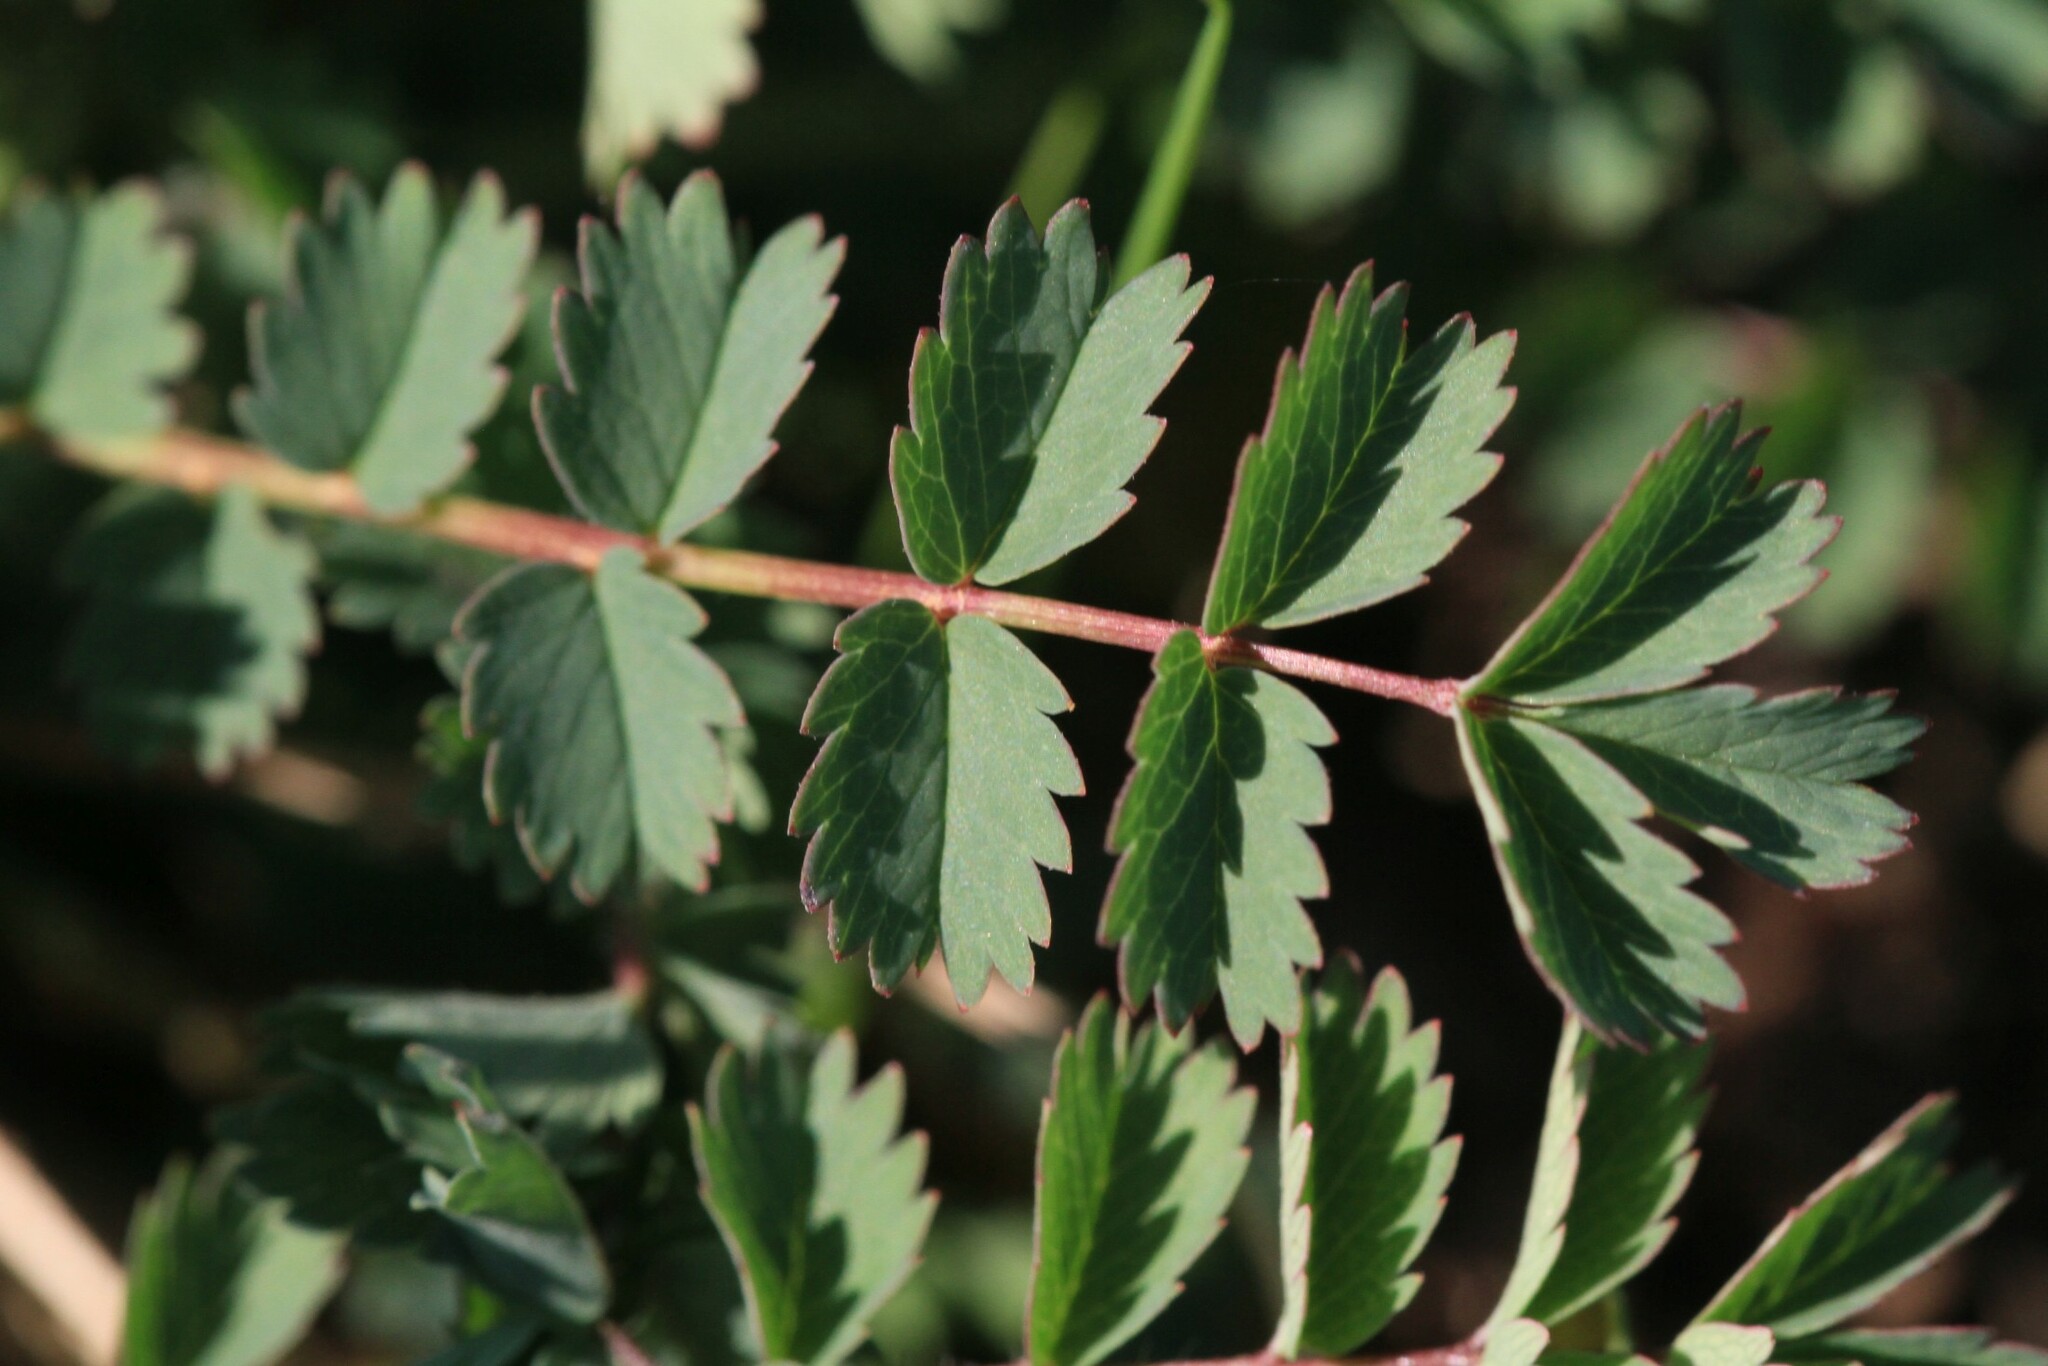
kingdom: Plantae
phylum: Tracheophyta
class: Magnoliopsida
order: Rosales
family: Rosaceae
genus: Poterium
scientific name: Poterium sanguisorba
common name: Salad burnet
